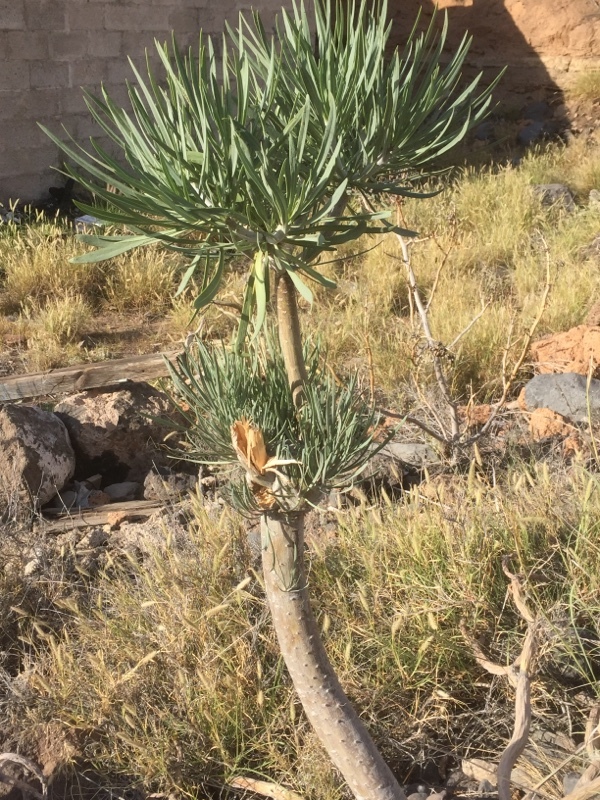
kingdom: Plantae
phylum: Tracheophyta
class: Magnoliopsida
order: Asterales
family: Asteraceae
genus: Kleinia
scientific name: Kleinia neriifolia
